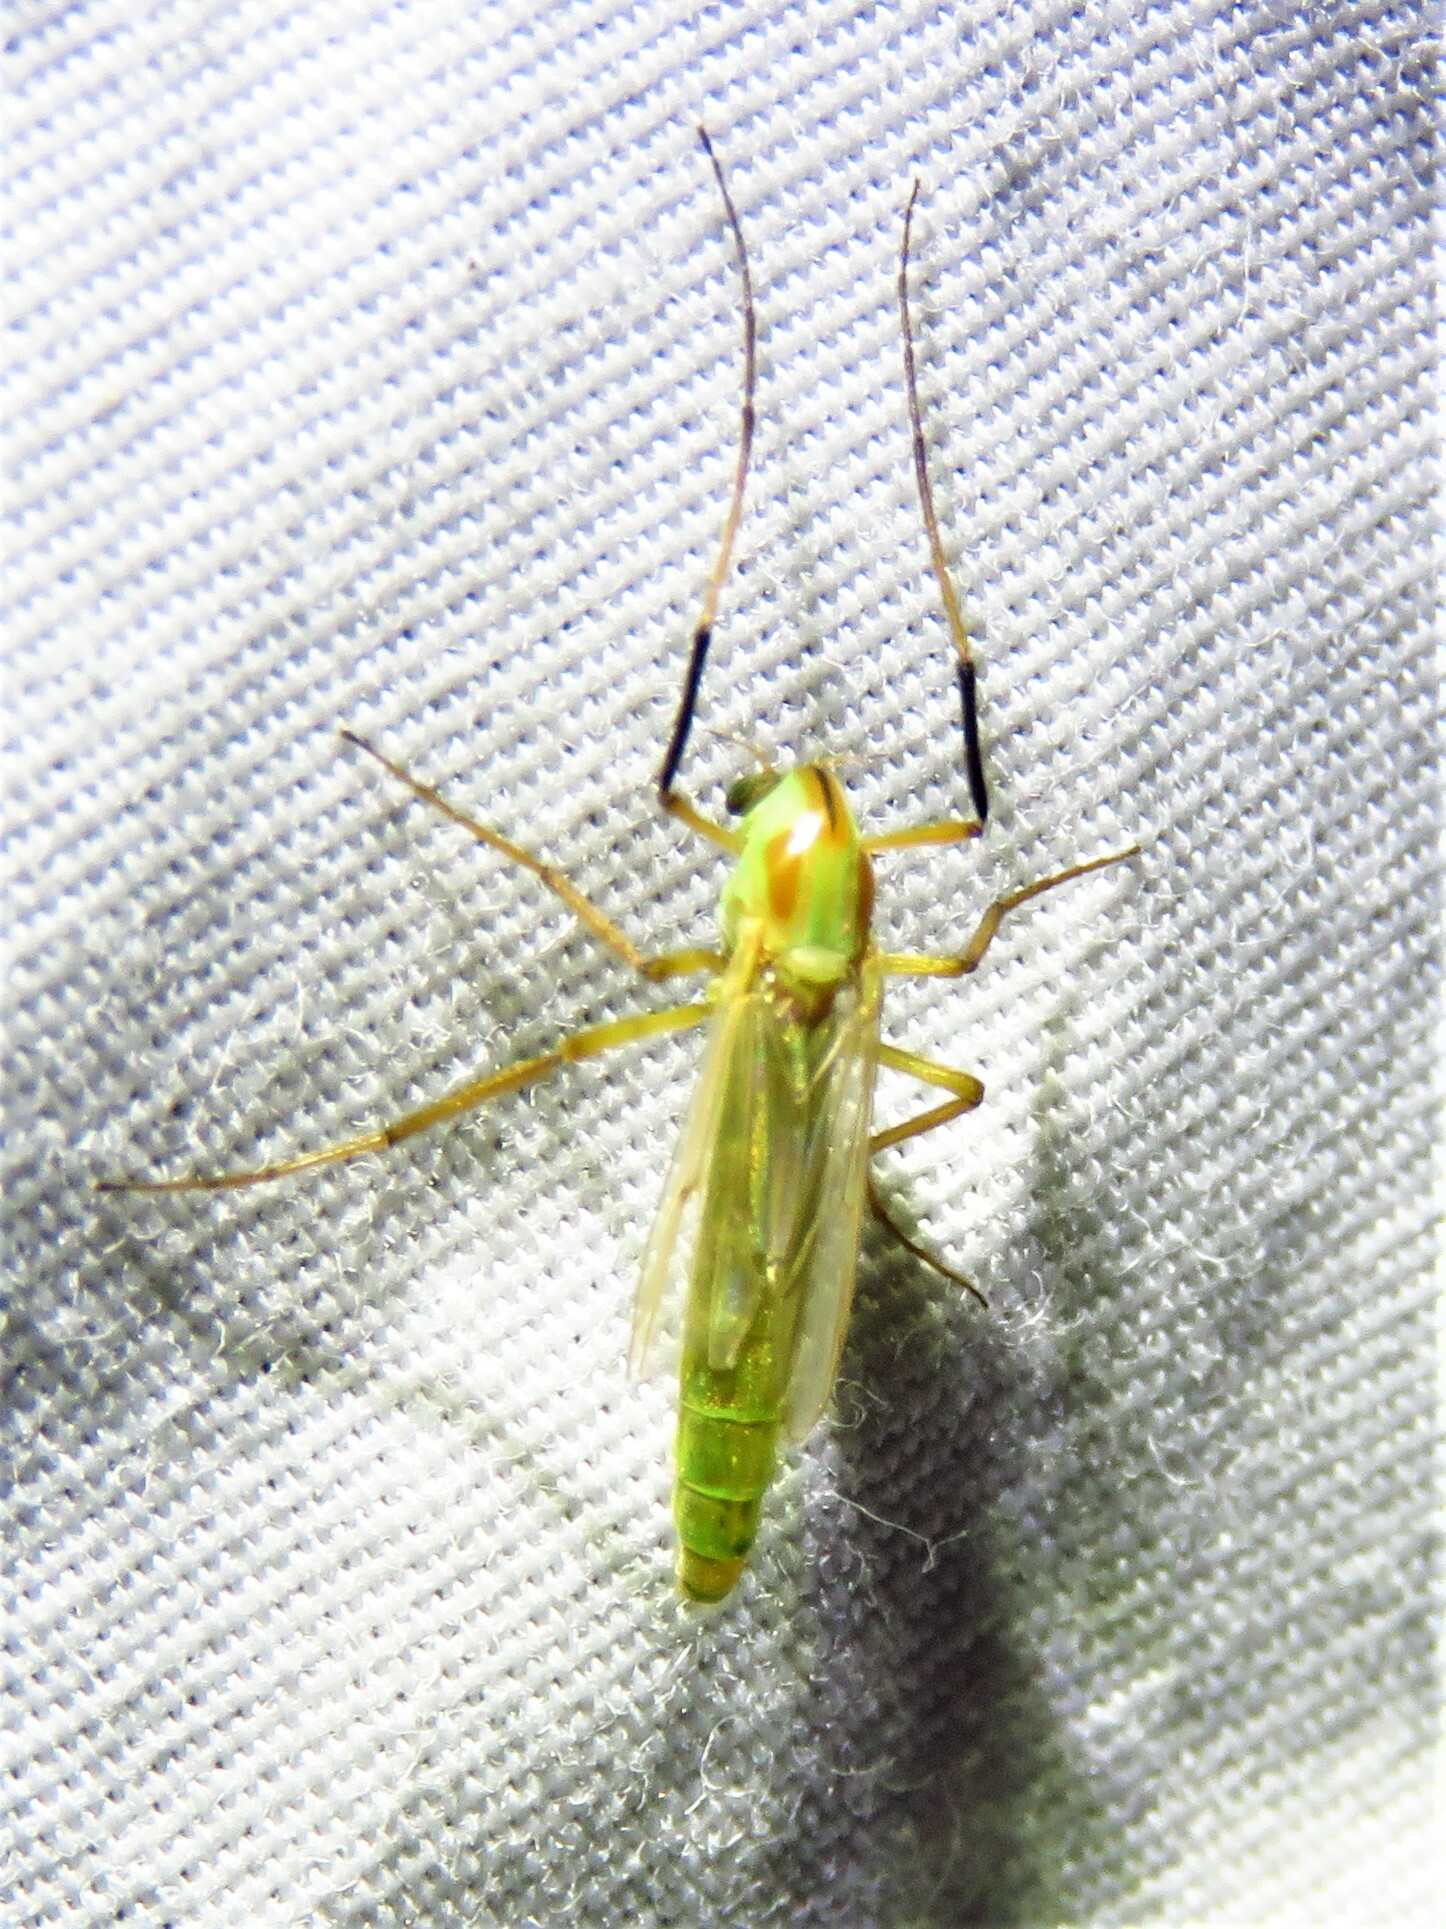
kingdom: Animalia
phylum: Arthropoda
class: Insecta
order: Diptera
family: Chironomidae
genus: Axarus
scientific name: Axarus
